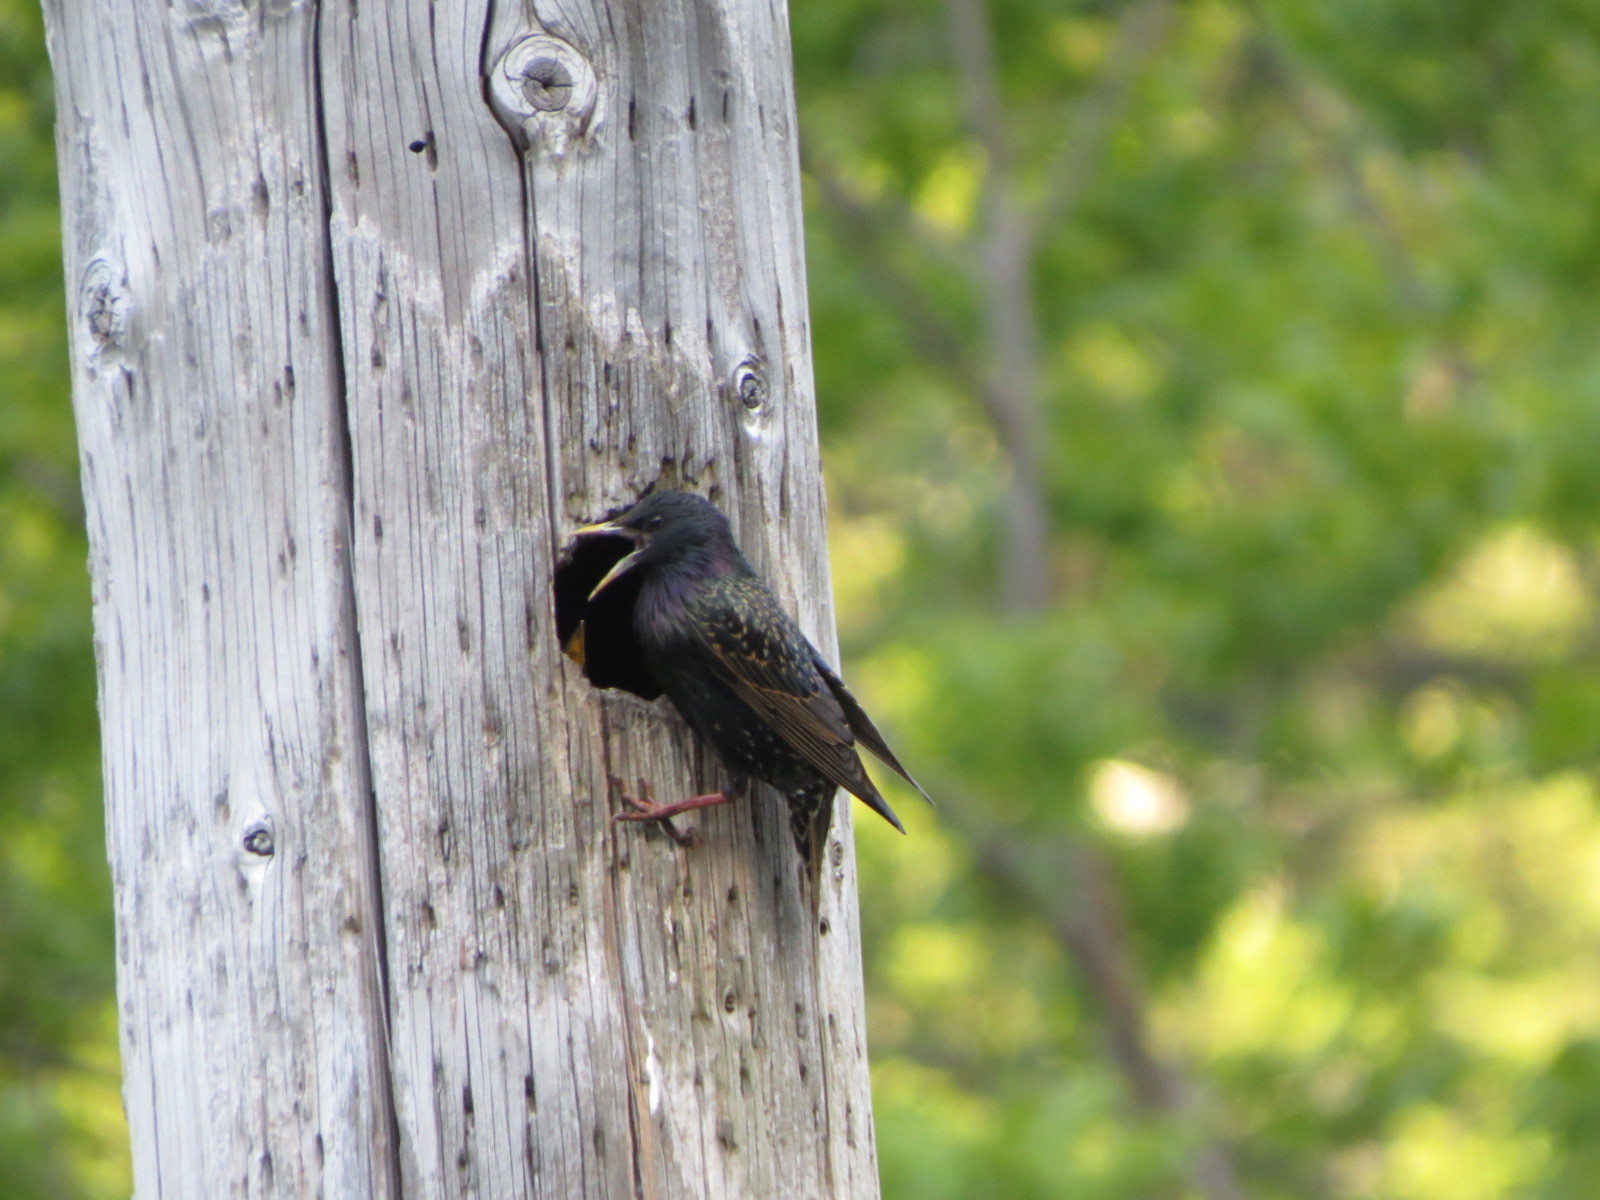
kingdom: Animalia
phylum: Chordata
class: Aves
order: Passeriformes
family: Sturnidae
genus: Sturnus
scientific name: Sturnus vulgaris
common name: Common starling
